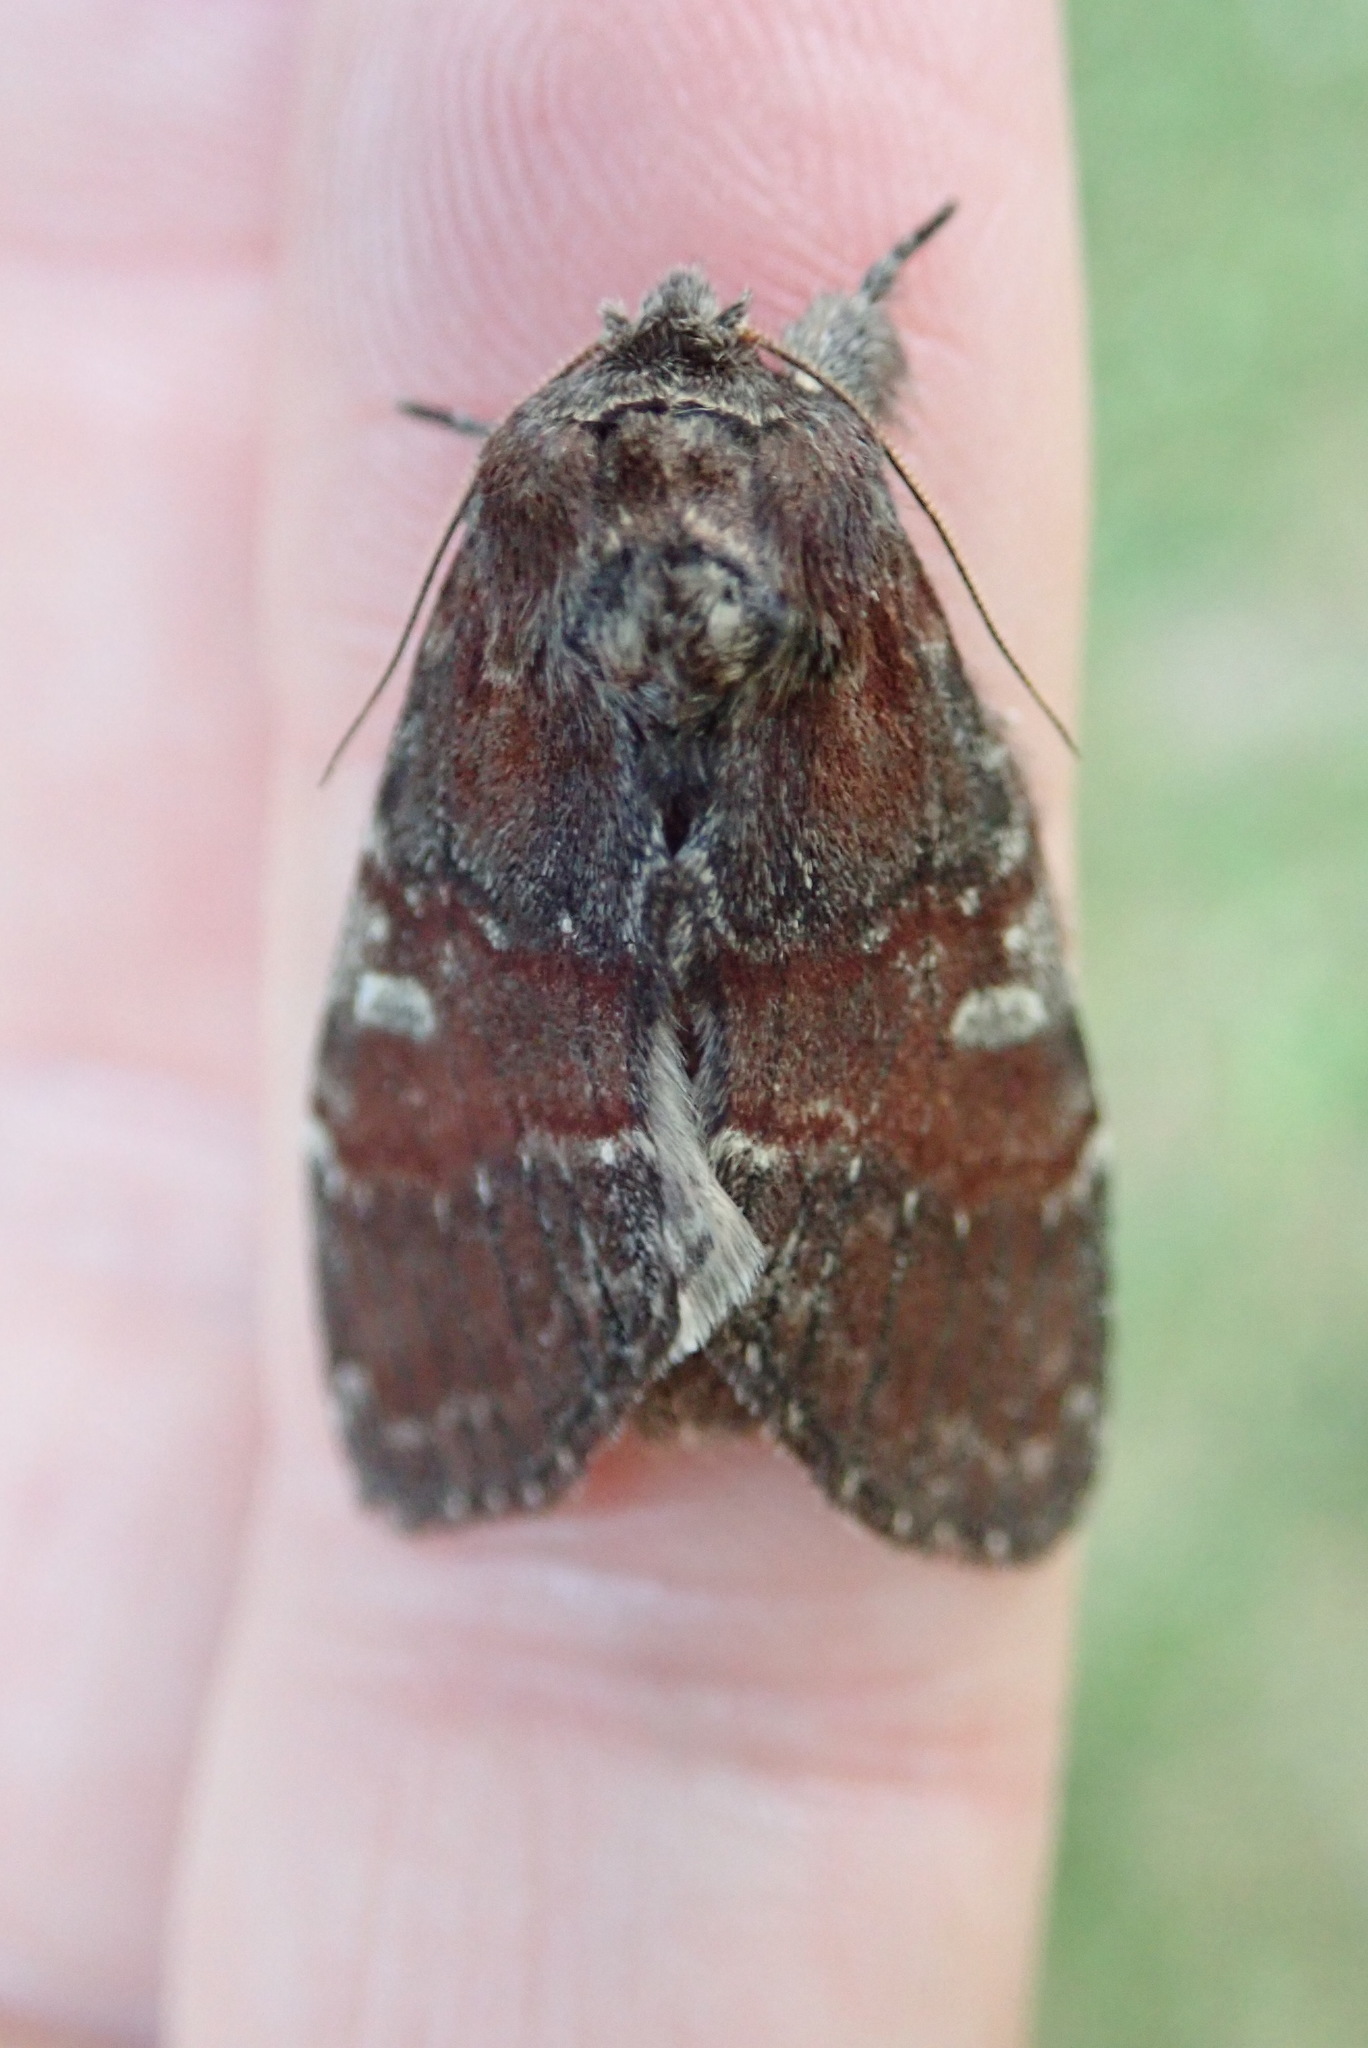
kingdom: Animalia
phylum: Arthropoda
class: Insecta
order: Lepidoptera
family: Notodontidae
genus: Peridea
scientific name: Peridea ferruginea
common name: Chocolate prominent
